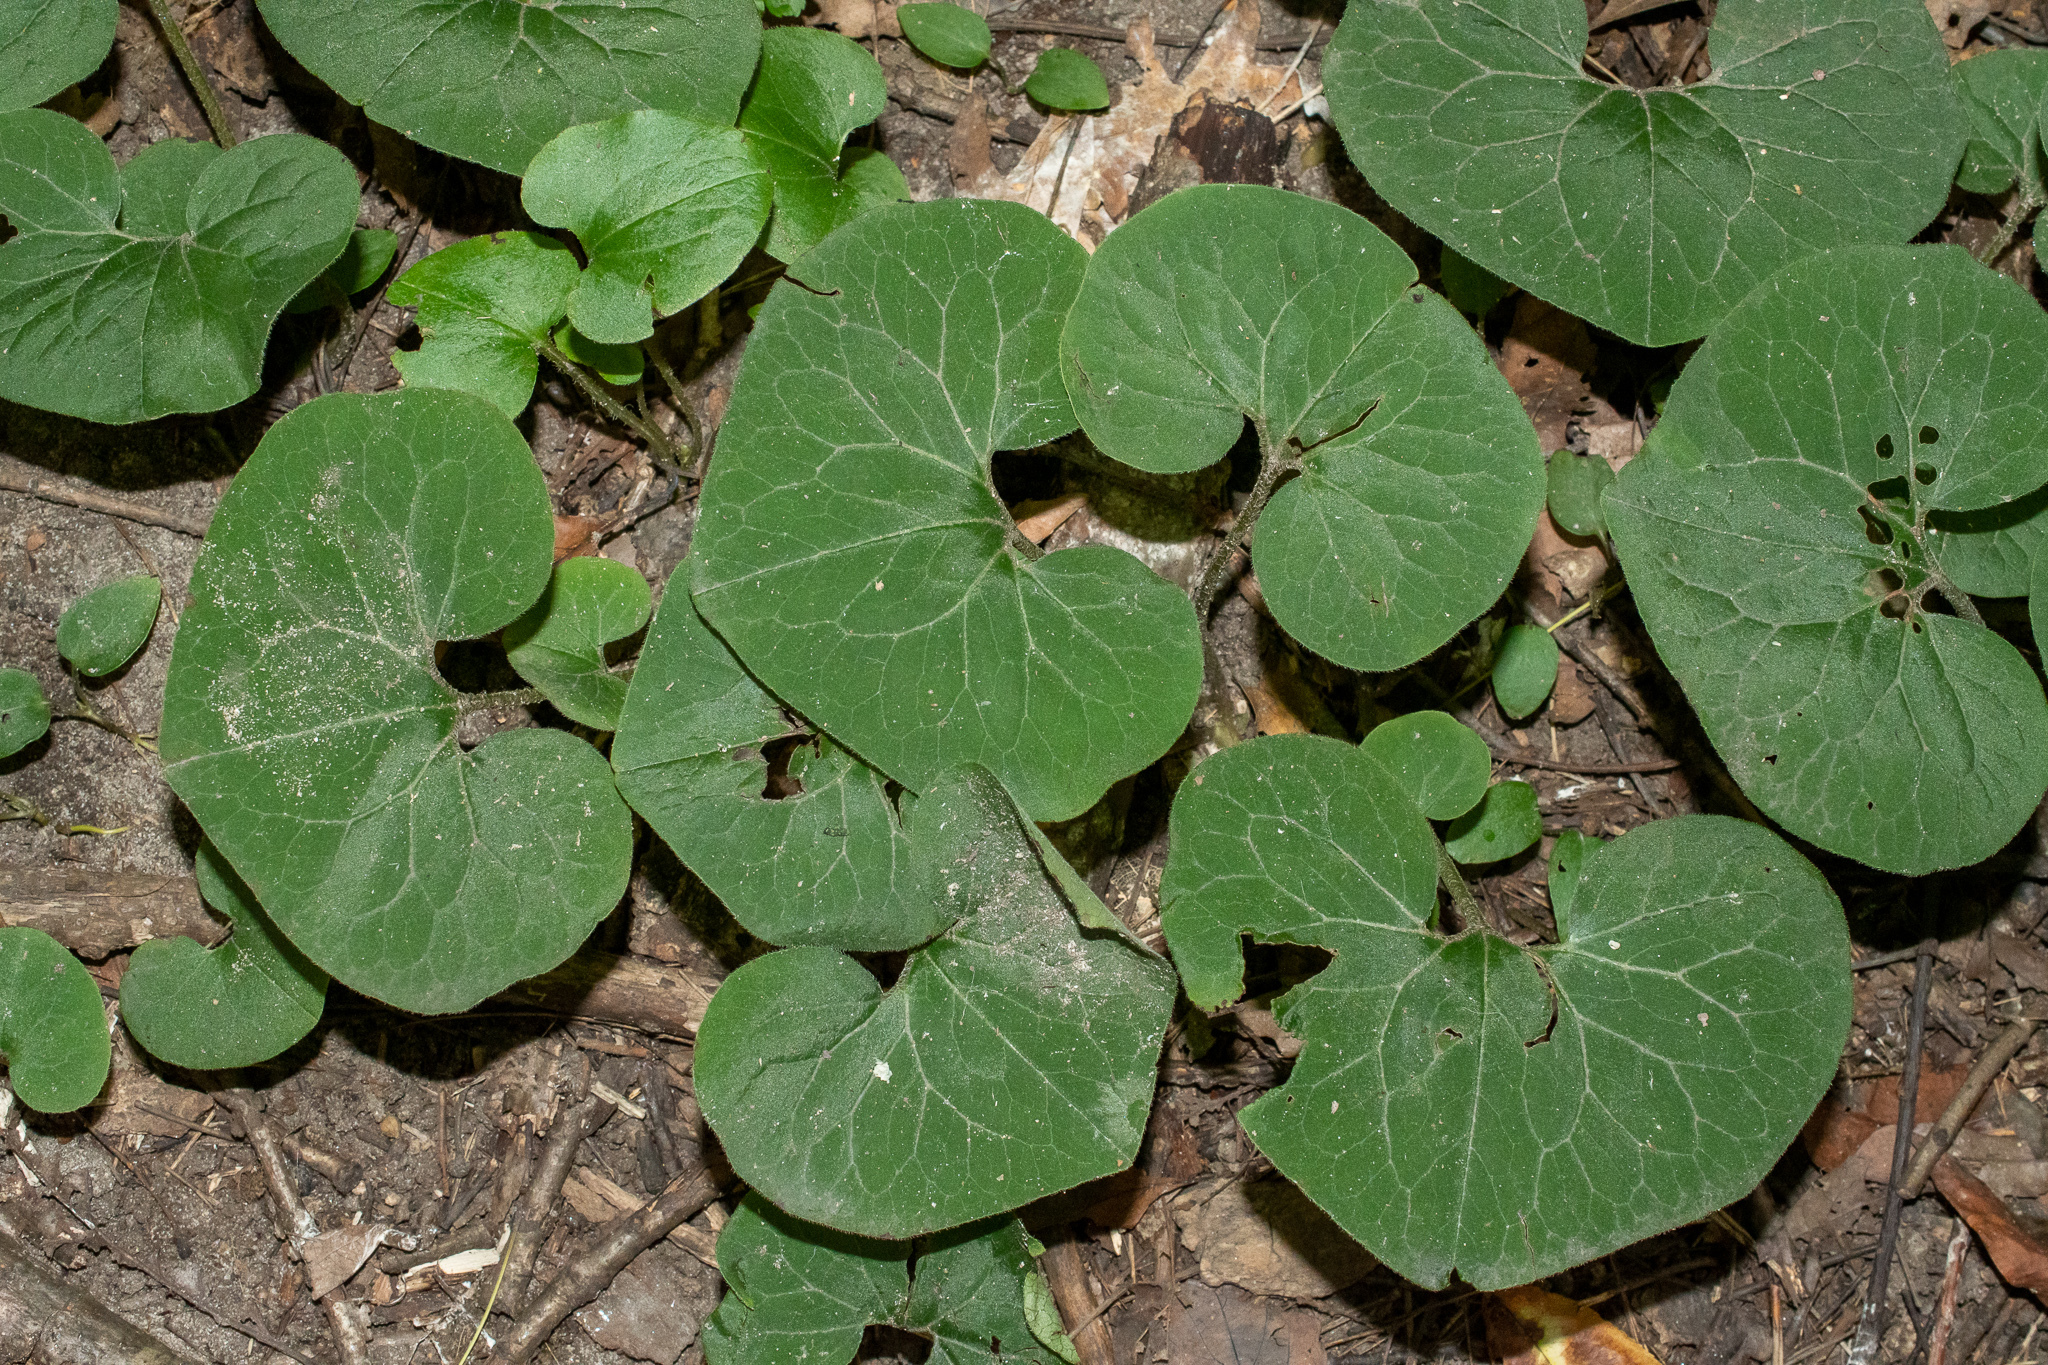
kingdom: Plantae
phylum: Tracheophyta
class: Magnoliopsida
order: Piperales
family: Aristolochiaceae
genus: Asarum
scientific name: Asarum canadense
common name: Wild ginger
